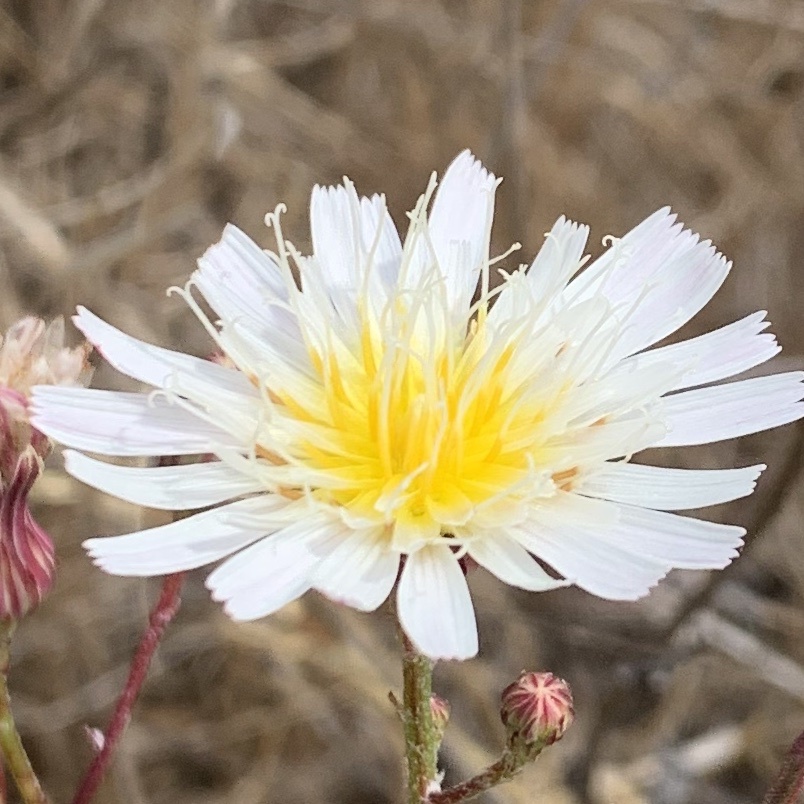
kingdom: Plantae
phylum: Tracheophyta
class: Magnoliopsida
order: Asterales
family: Asteraceae
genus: Malacothrix
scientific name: Malacothrix saxatilis
